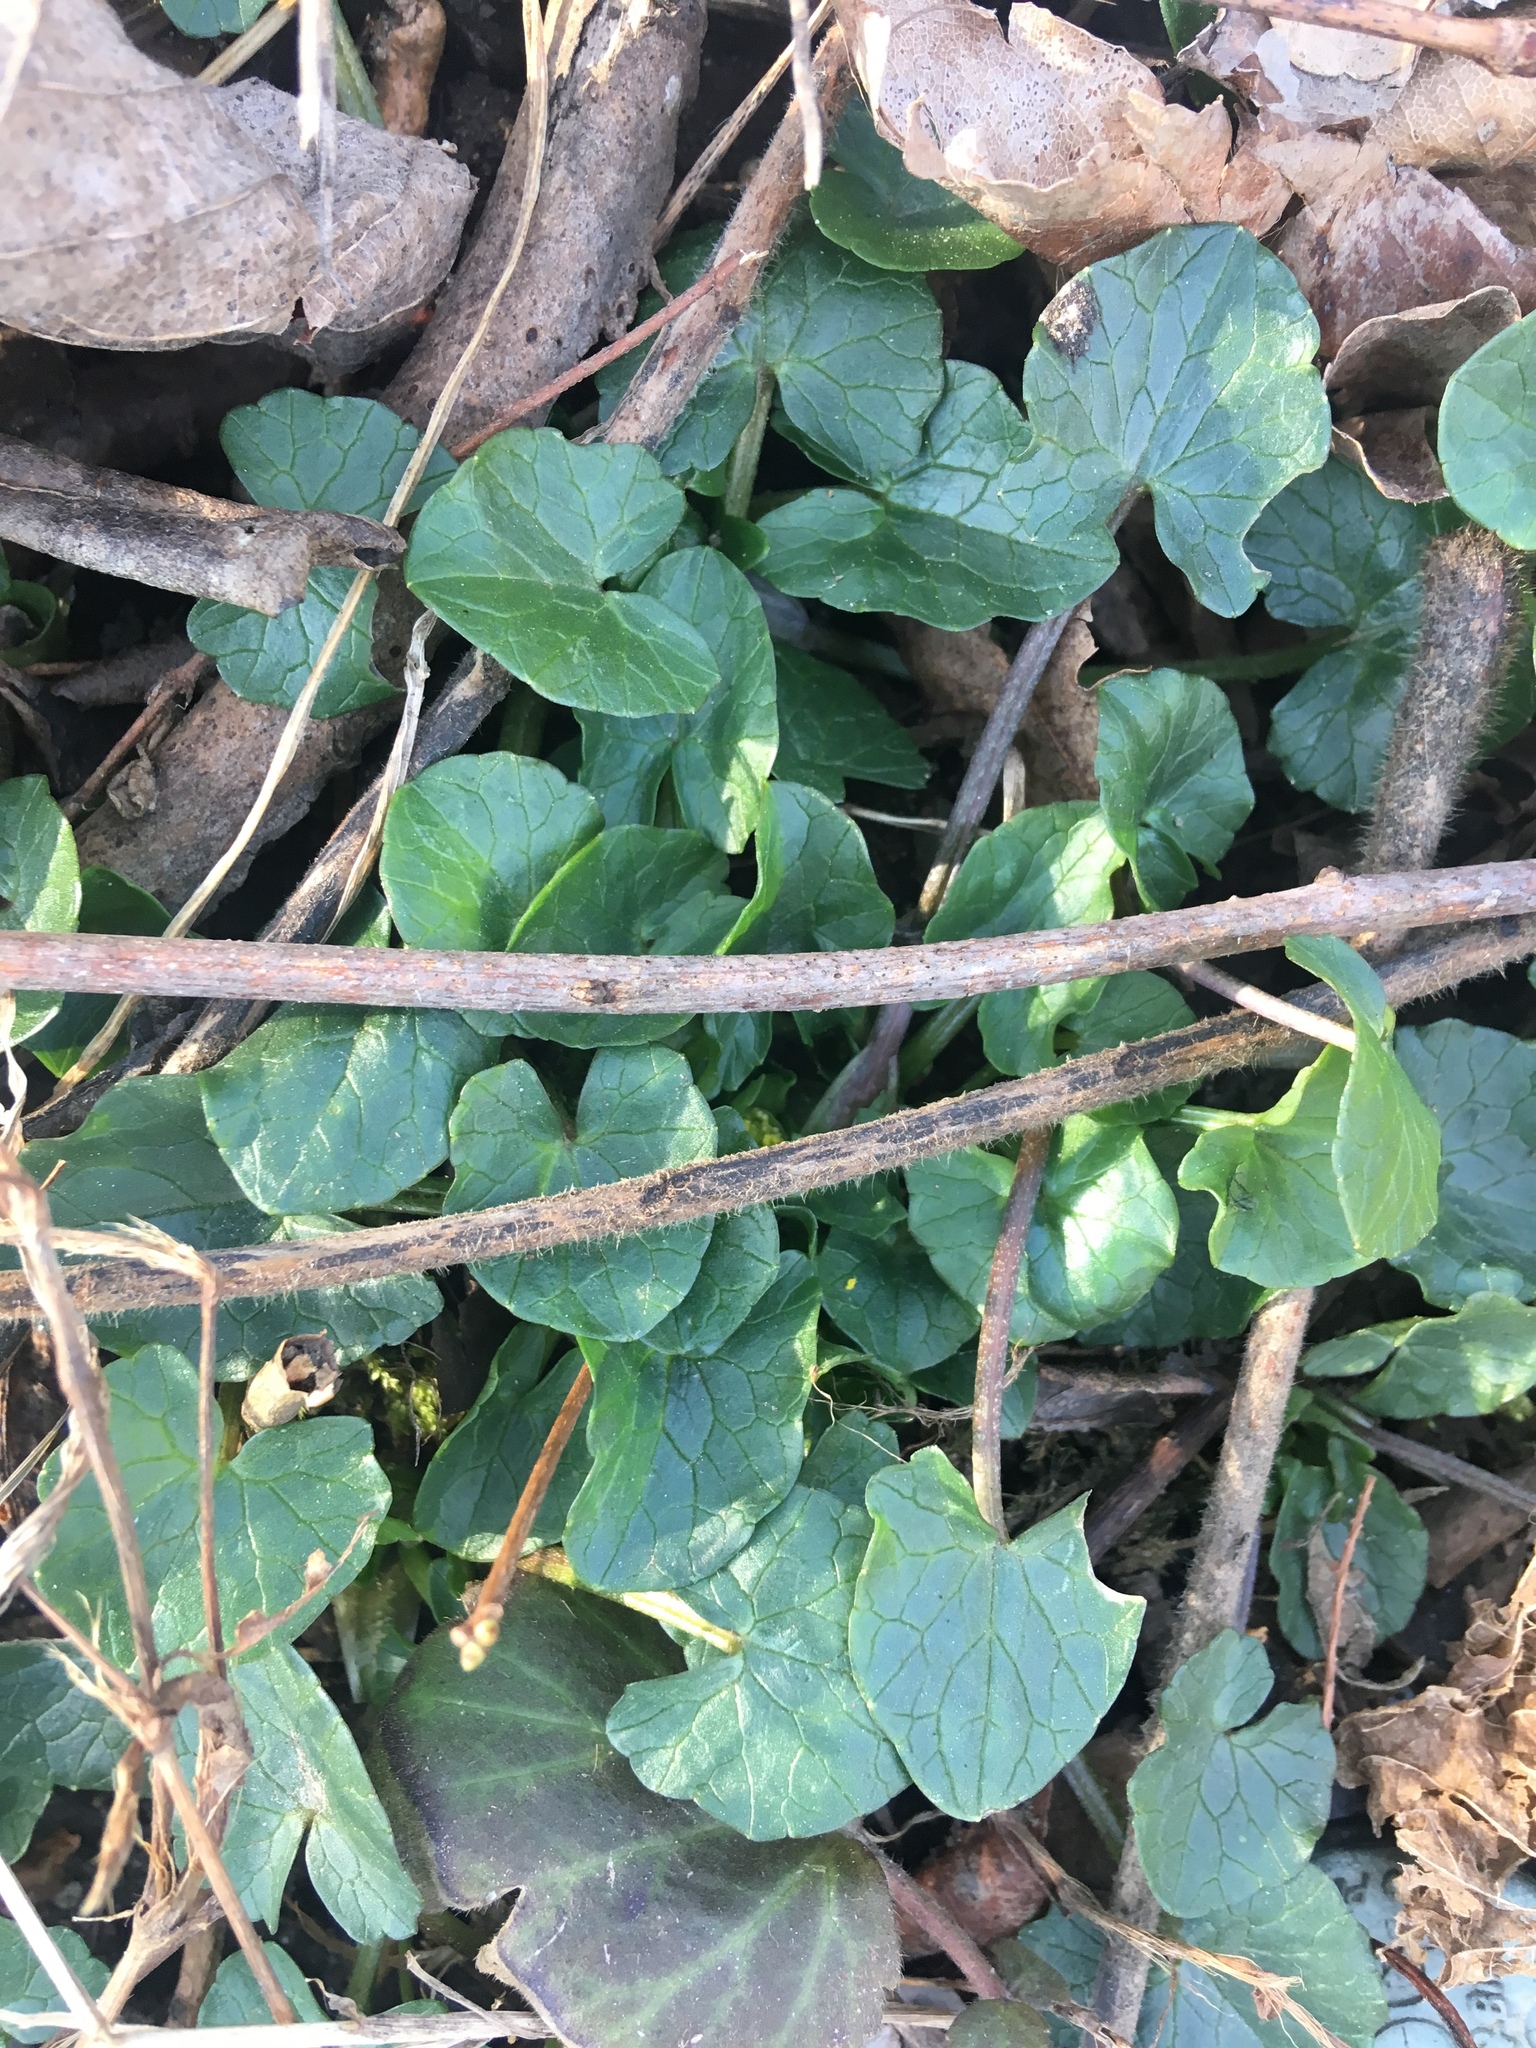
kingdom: Plantae
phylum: Tracheophyta
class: Magnoliopsida
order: Ranunculales
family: Ranunculaceae
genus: Ficaria
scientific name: Ficaria verna
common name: Lesser celandine
